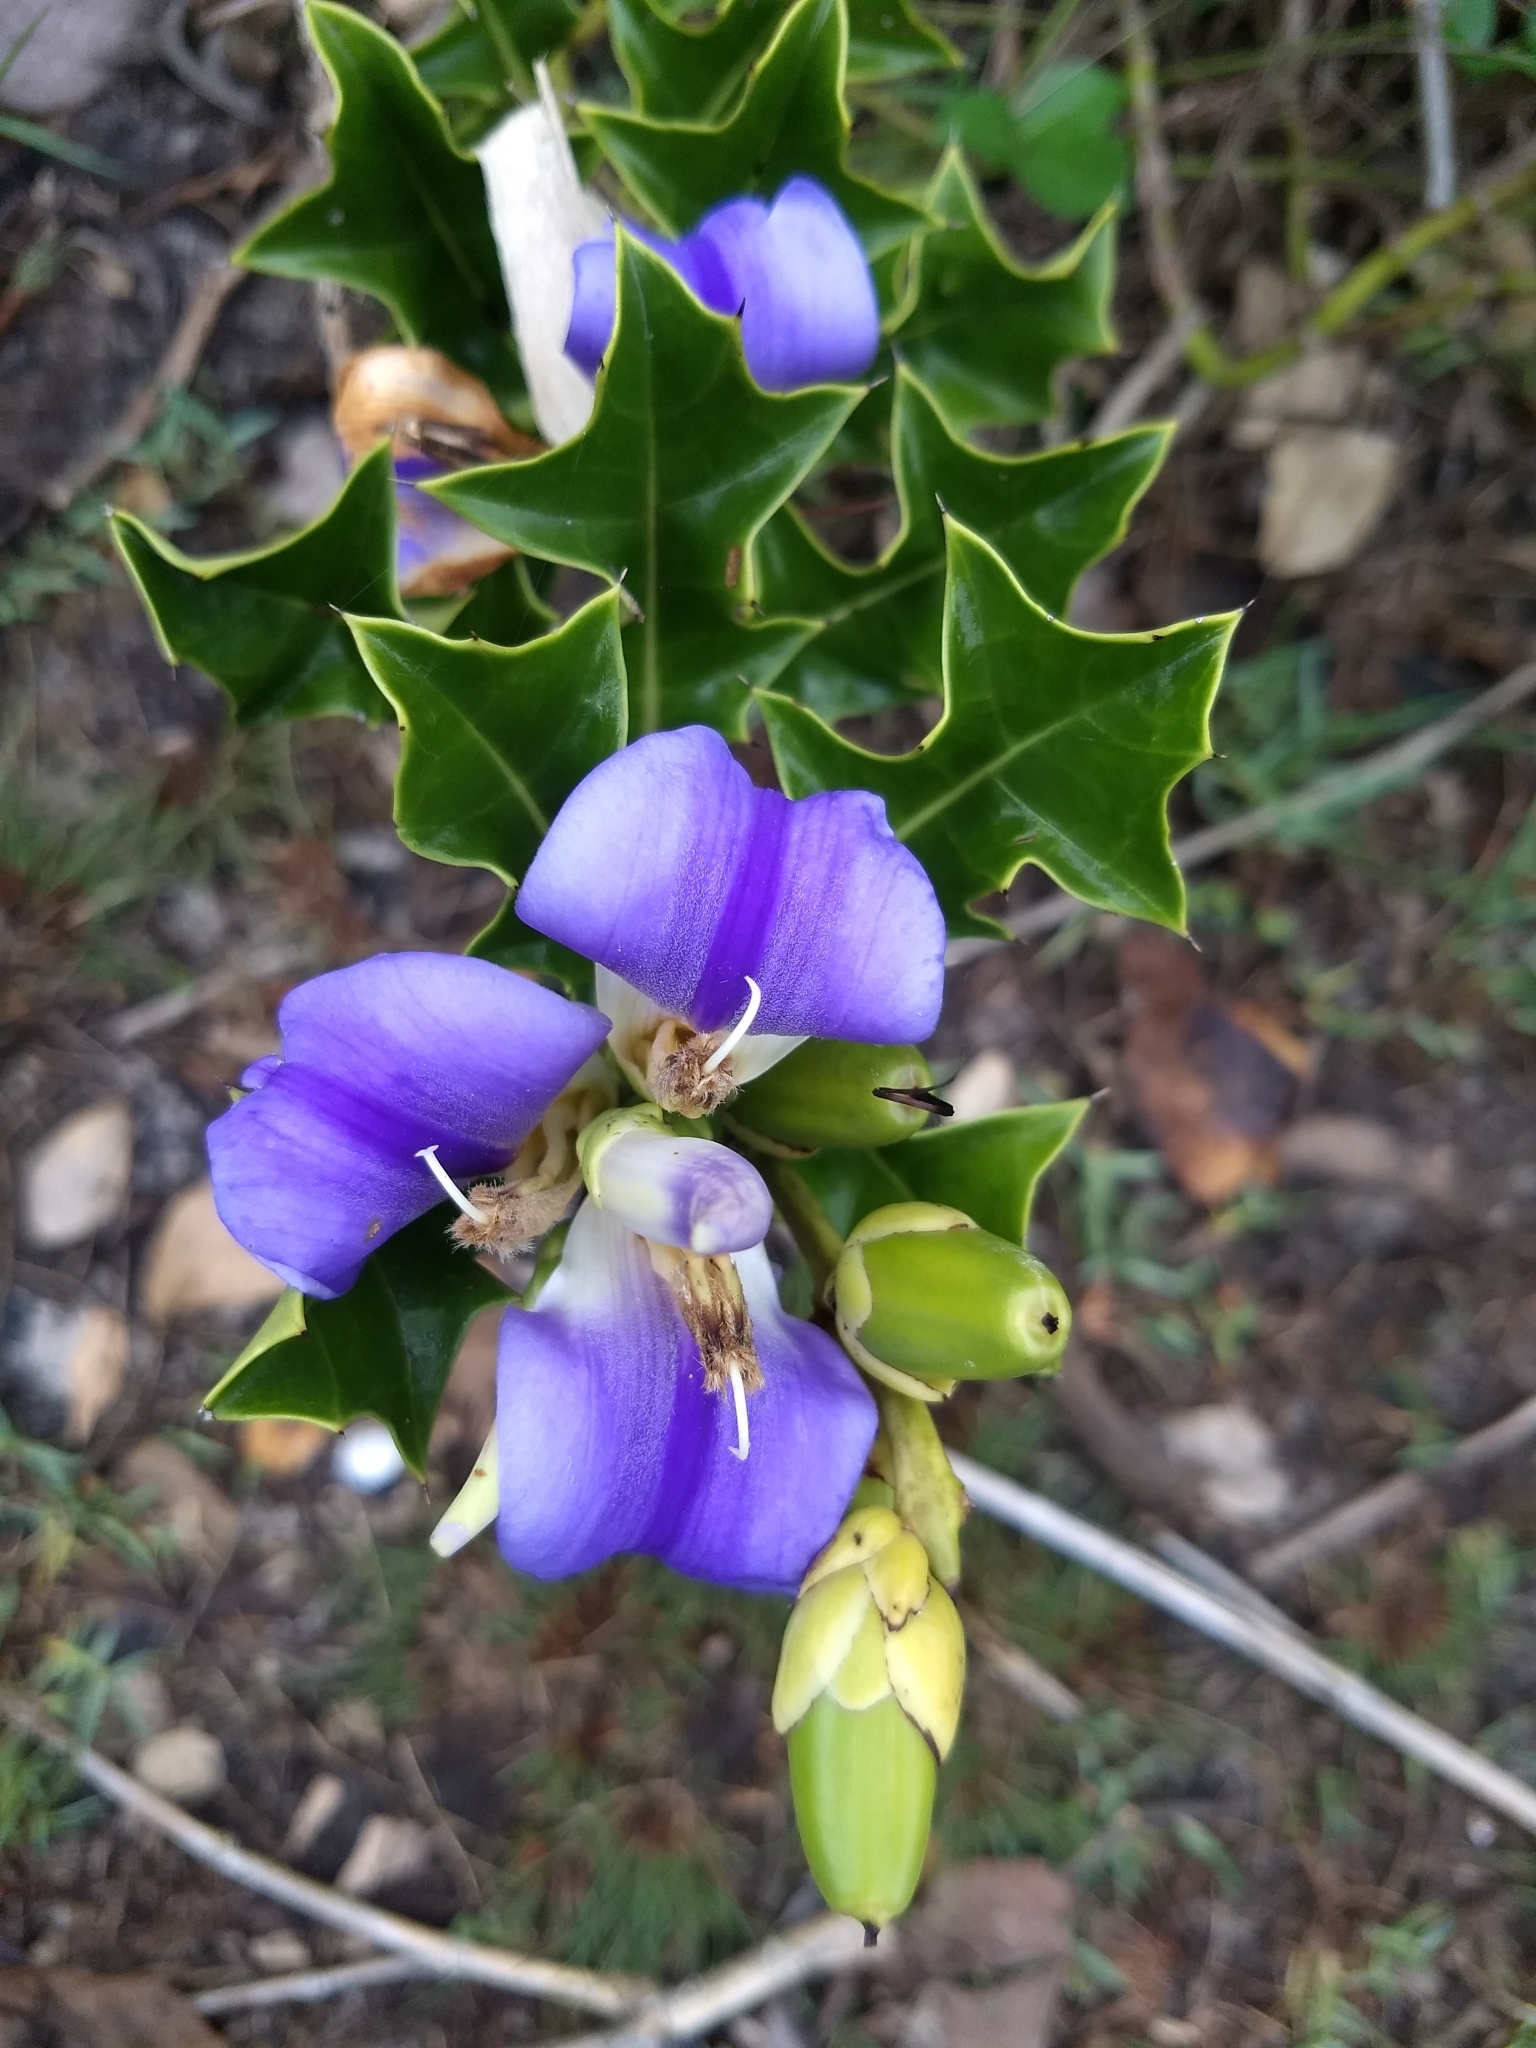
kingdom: Plantae
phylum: Tracheophyta
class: Magnoliopsida
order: Lamiales
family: Acanthaceae
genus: Acanthus
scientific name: Acanthus ilicifolius
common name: Holy mangrove
